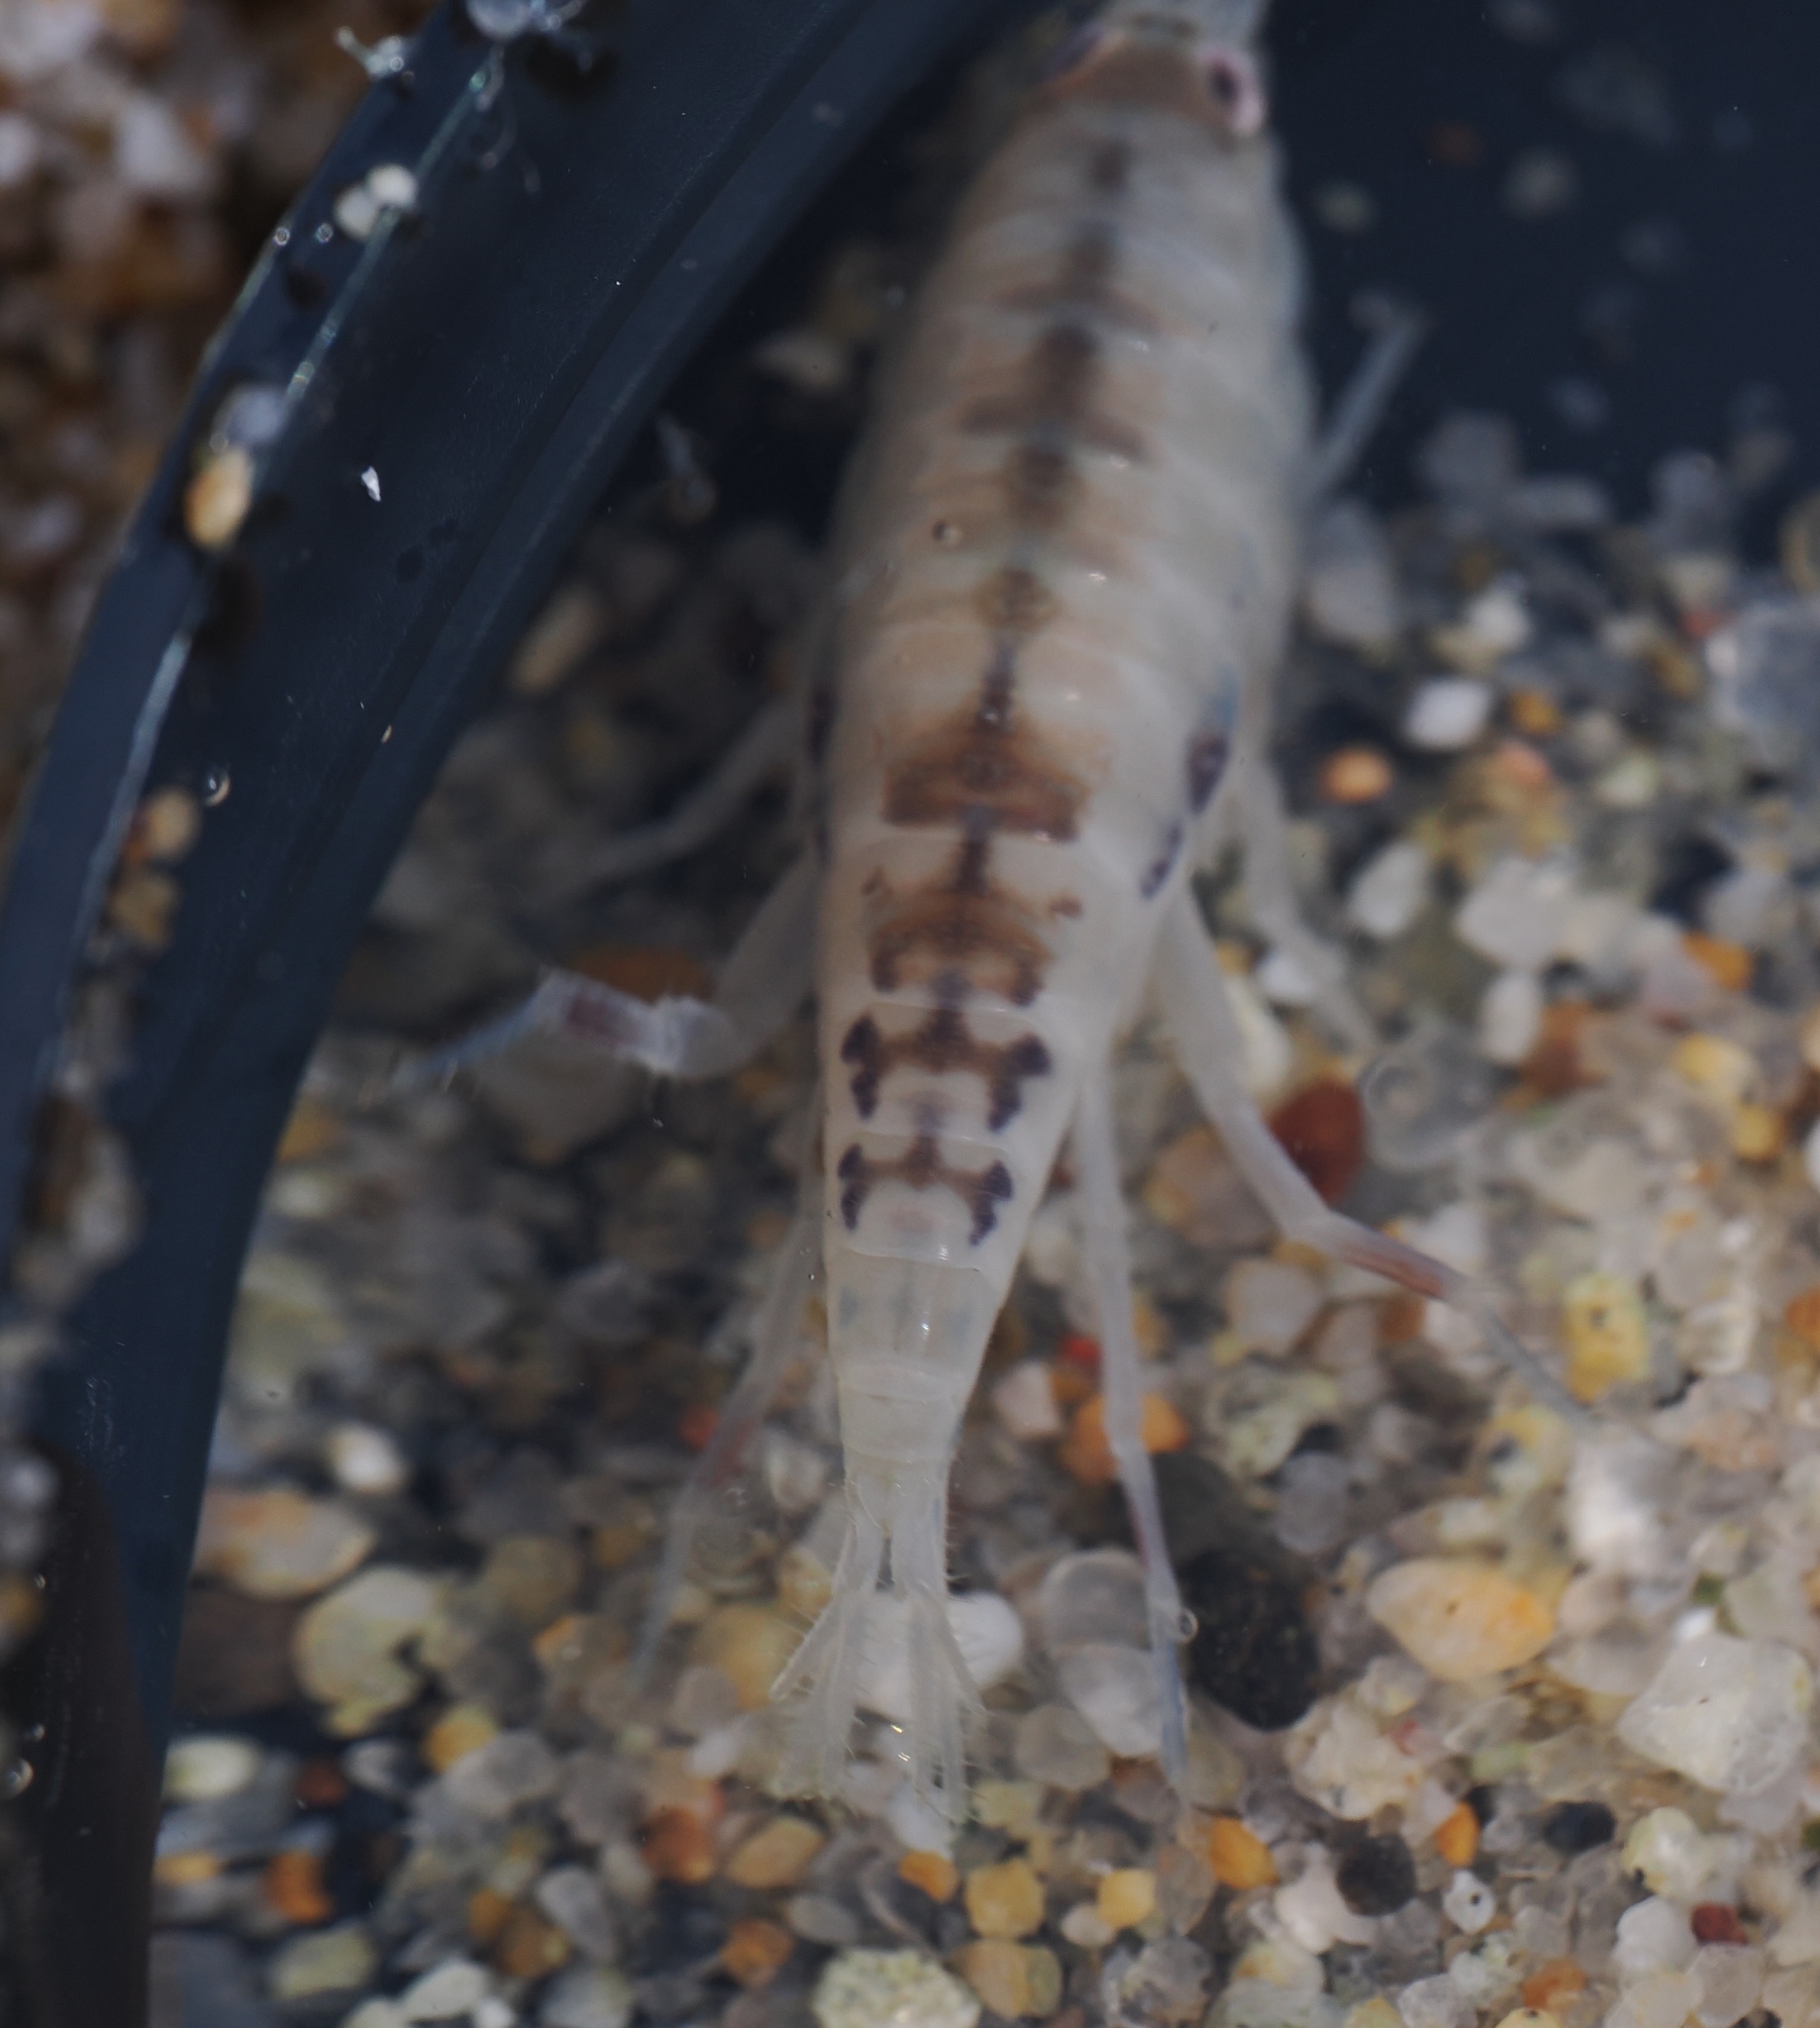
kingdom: Animalia
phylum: Arthropoda
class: Malacostraca
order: Amphipoda
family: Talitridae
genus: Megalorchestia
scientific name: Megalorchestia californiana
